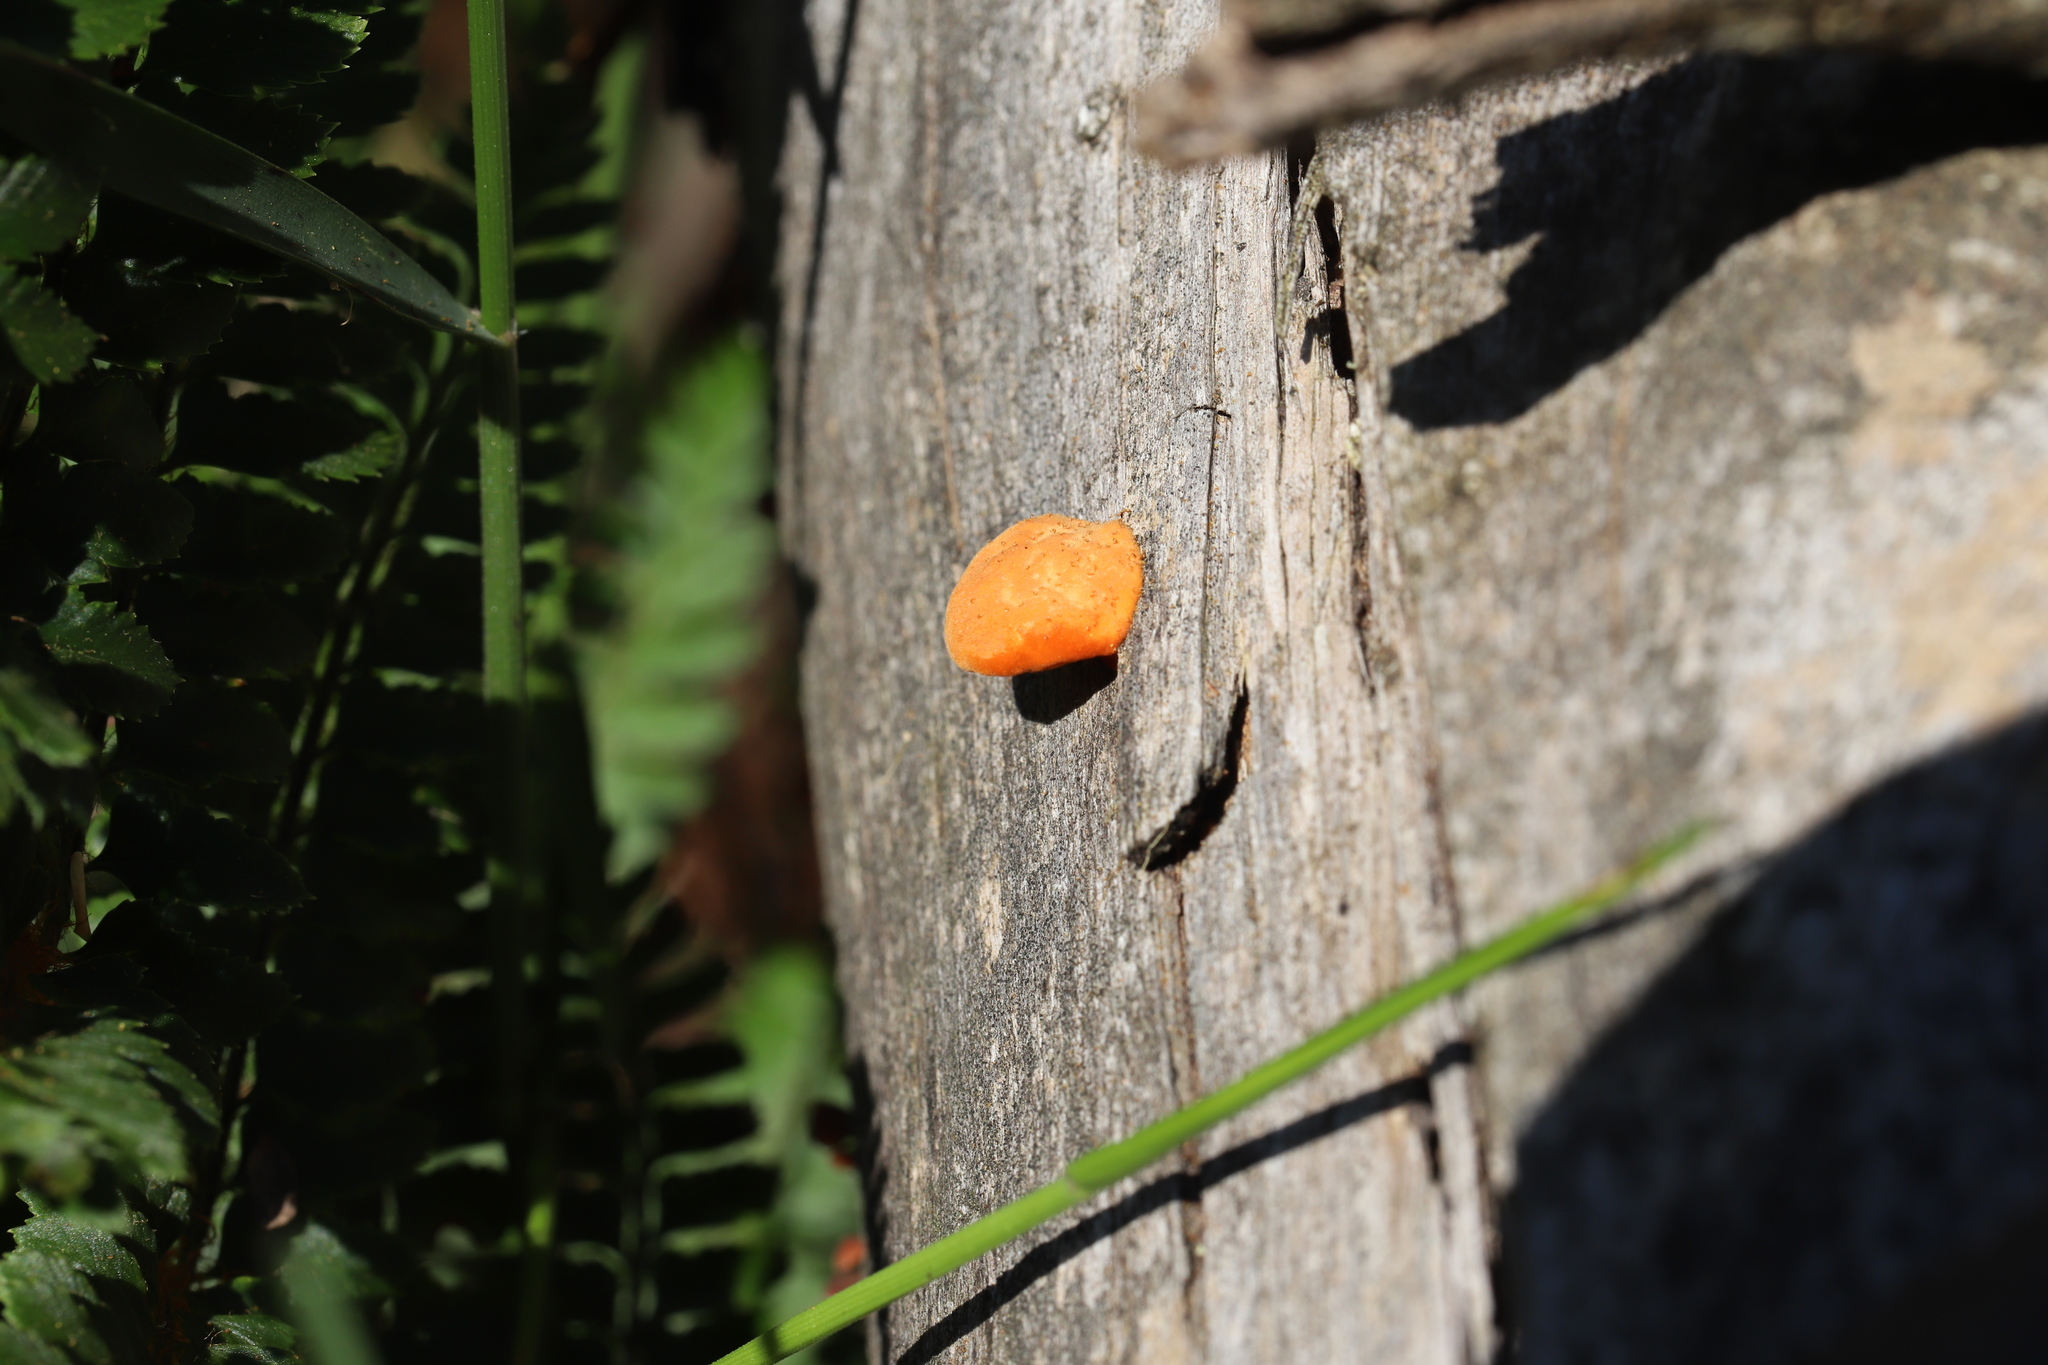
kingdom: Fungi
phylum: Basidiomycota
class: Agaricomycetes
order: Polyporales
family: Polyporaceae
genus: Trametes
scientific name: Trametes coccinea
